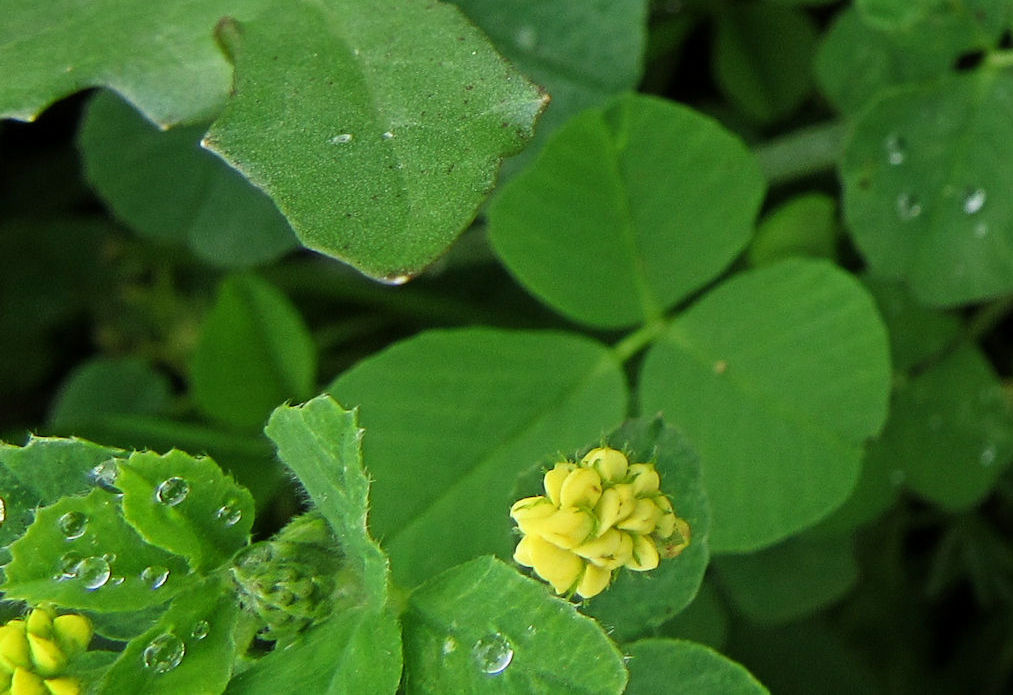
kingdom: Plantae
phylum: Tracheophyta
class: Magnoliopsida
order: Fabales
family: Fabaceae
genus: Medicago
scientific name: Medicago lupulina
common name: Black medick
